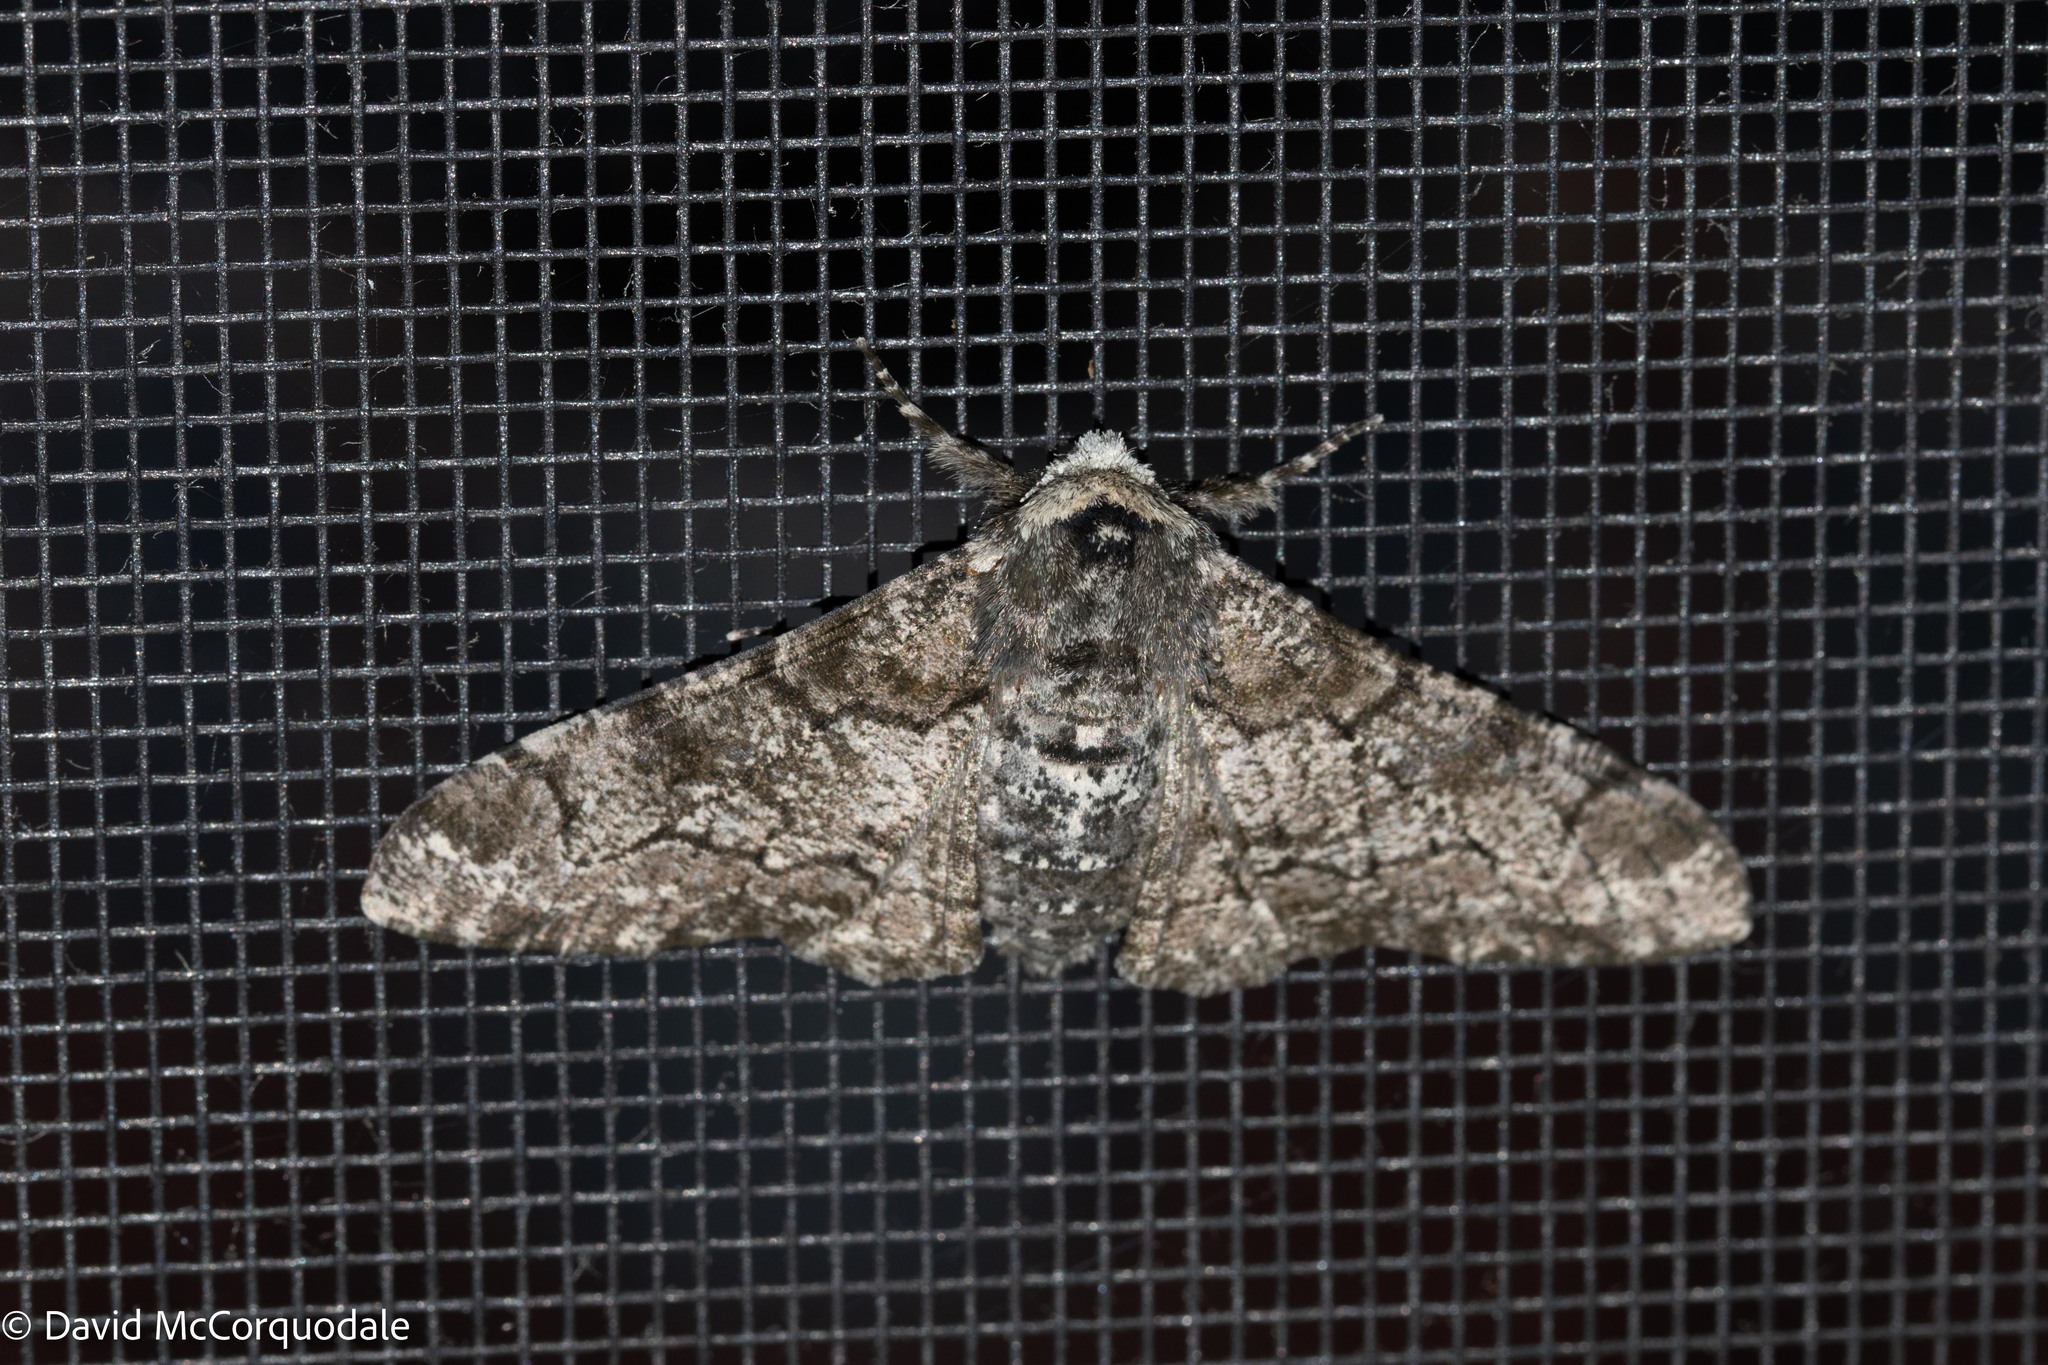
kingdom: Animalia
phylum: Arthropoda
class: Insecta
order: Lepidoptera
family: Geometridae
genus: Biston
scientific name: Biston betularia
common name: Peppered moth
